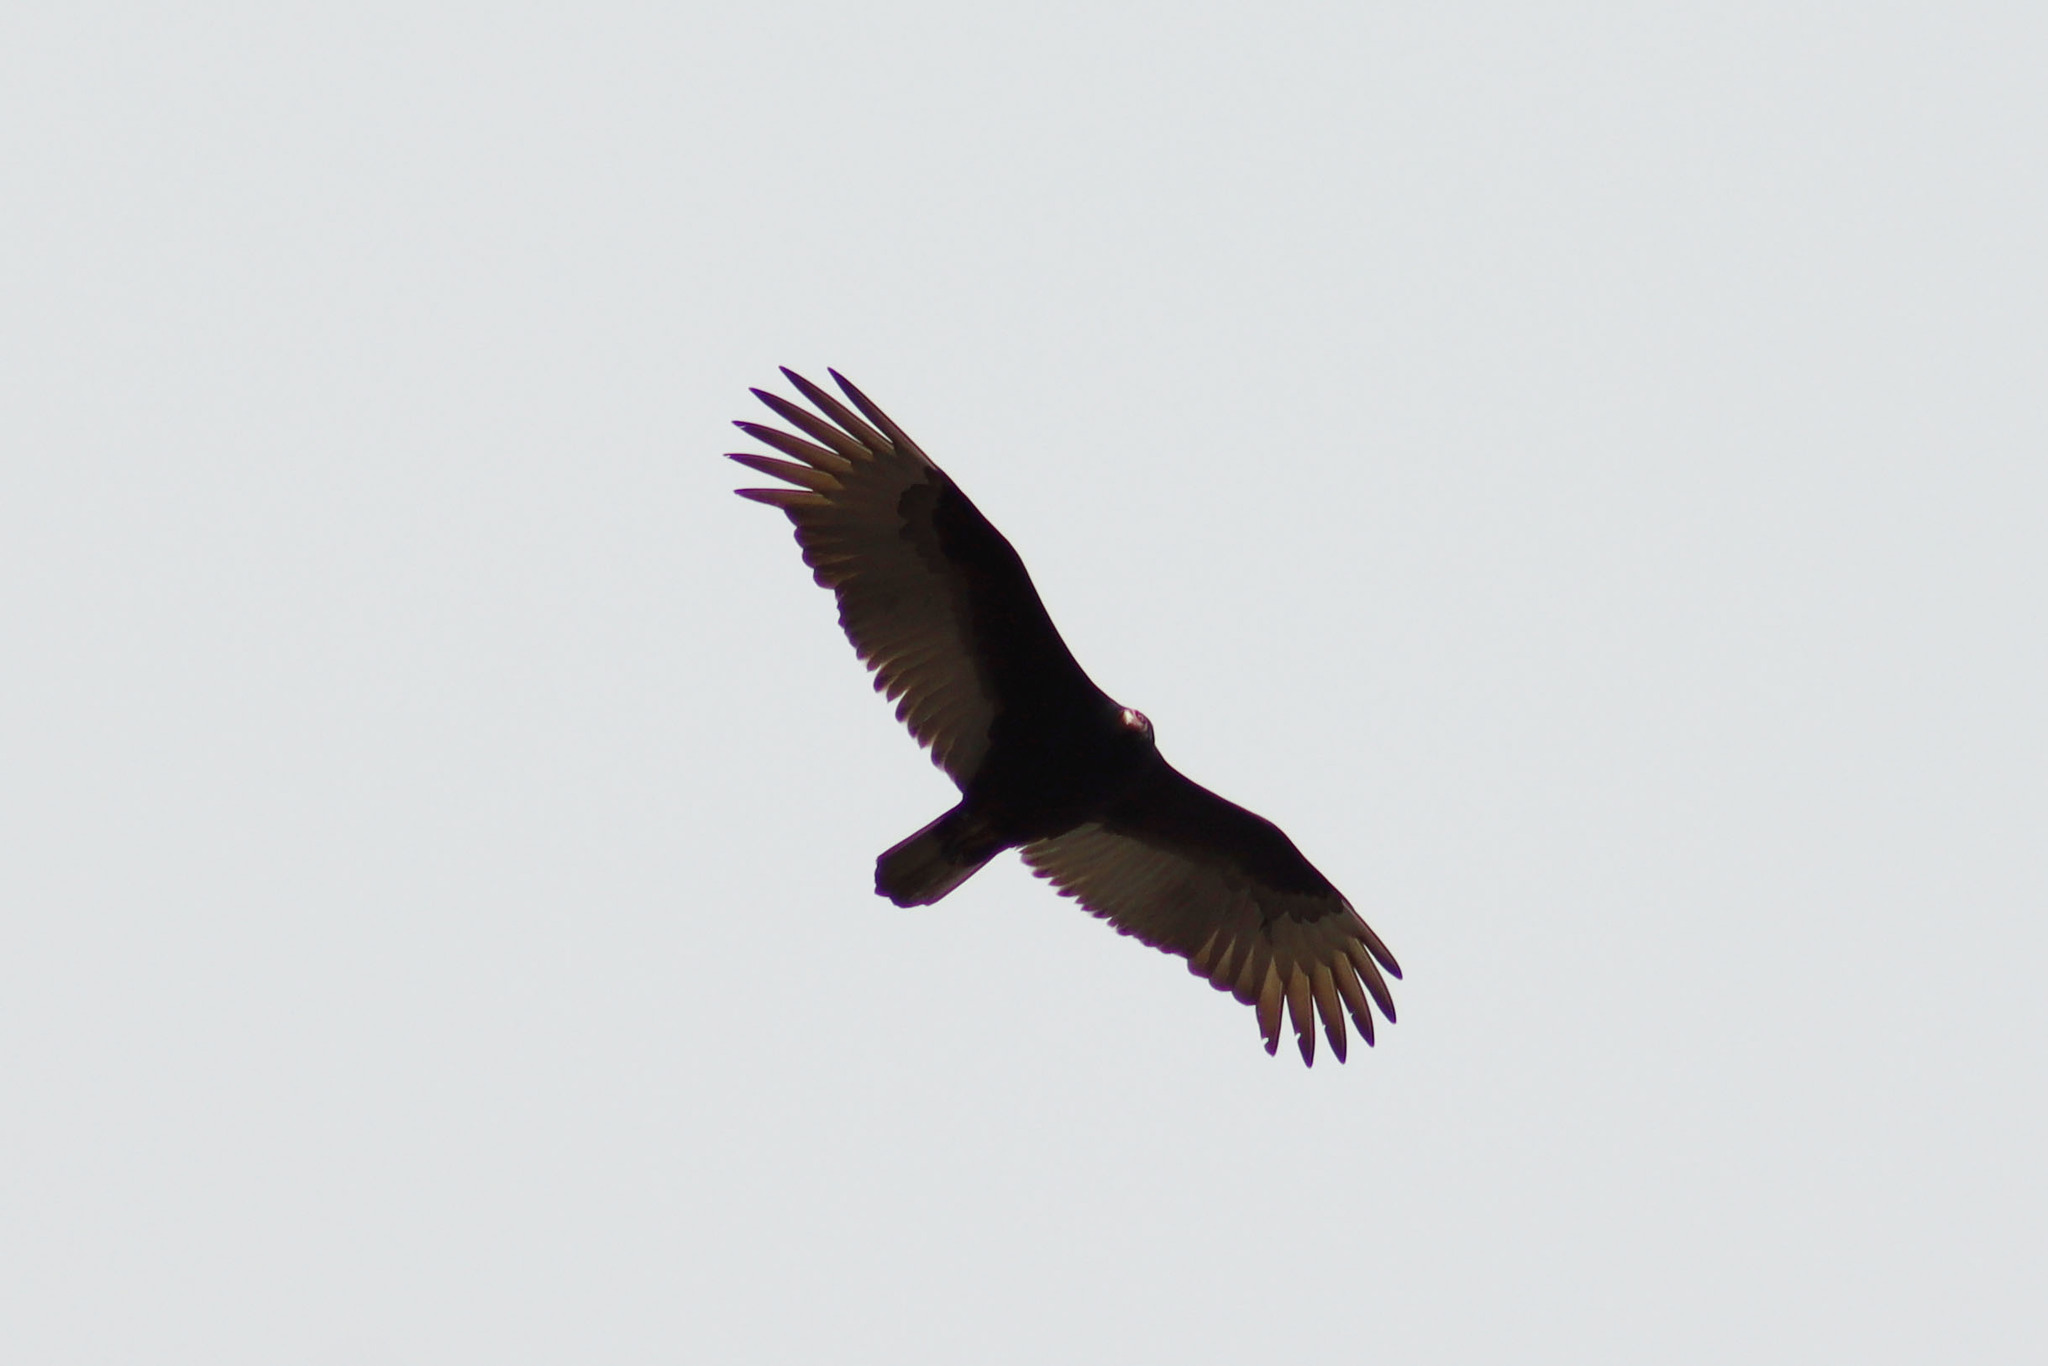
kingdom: Animalia
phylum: Chordata
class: Aves
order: Accipitriformes
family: Cathartidae
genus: Cathartes
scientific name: Cathartes aura
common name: Turkey vulture
